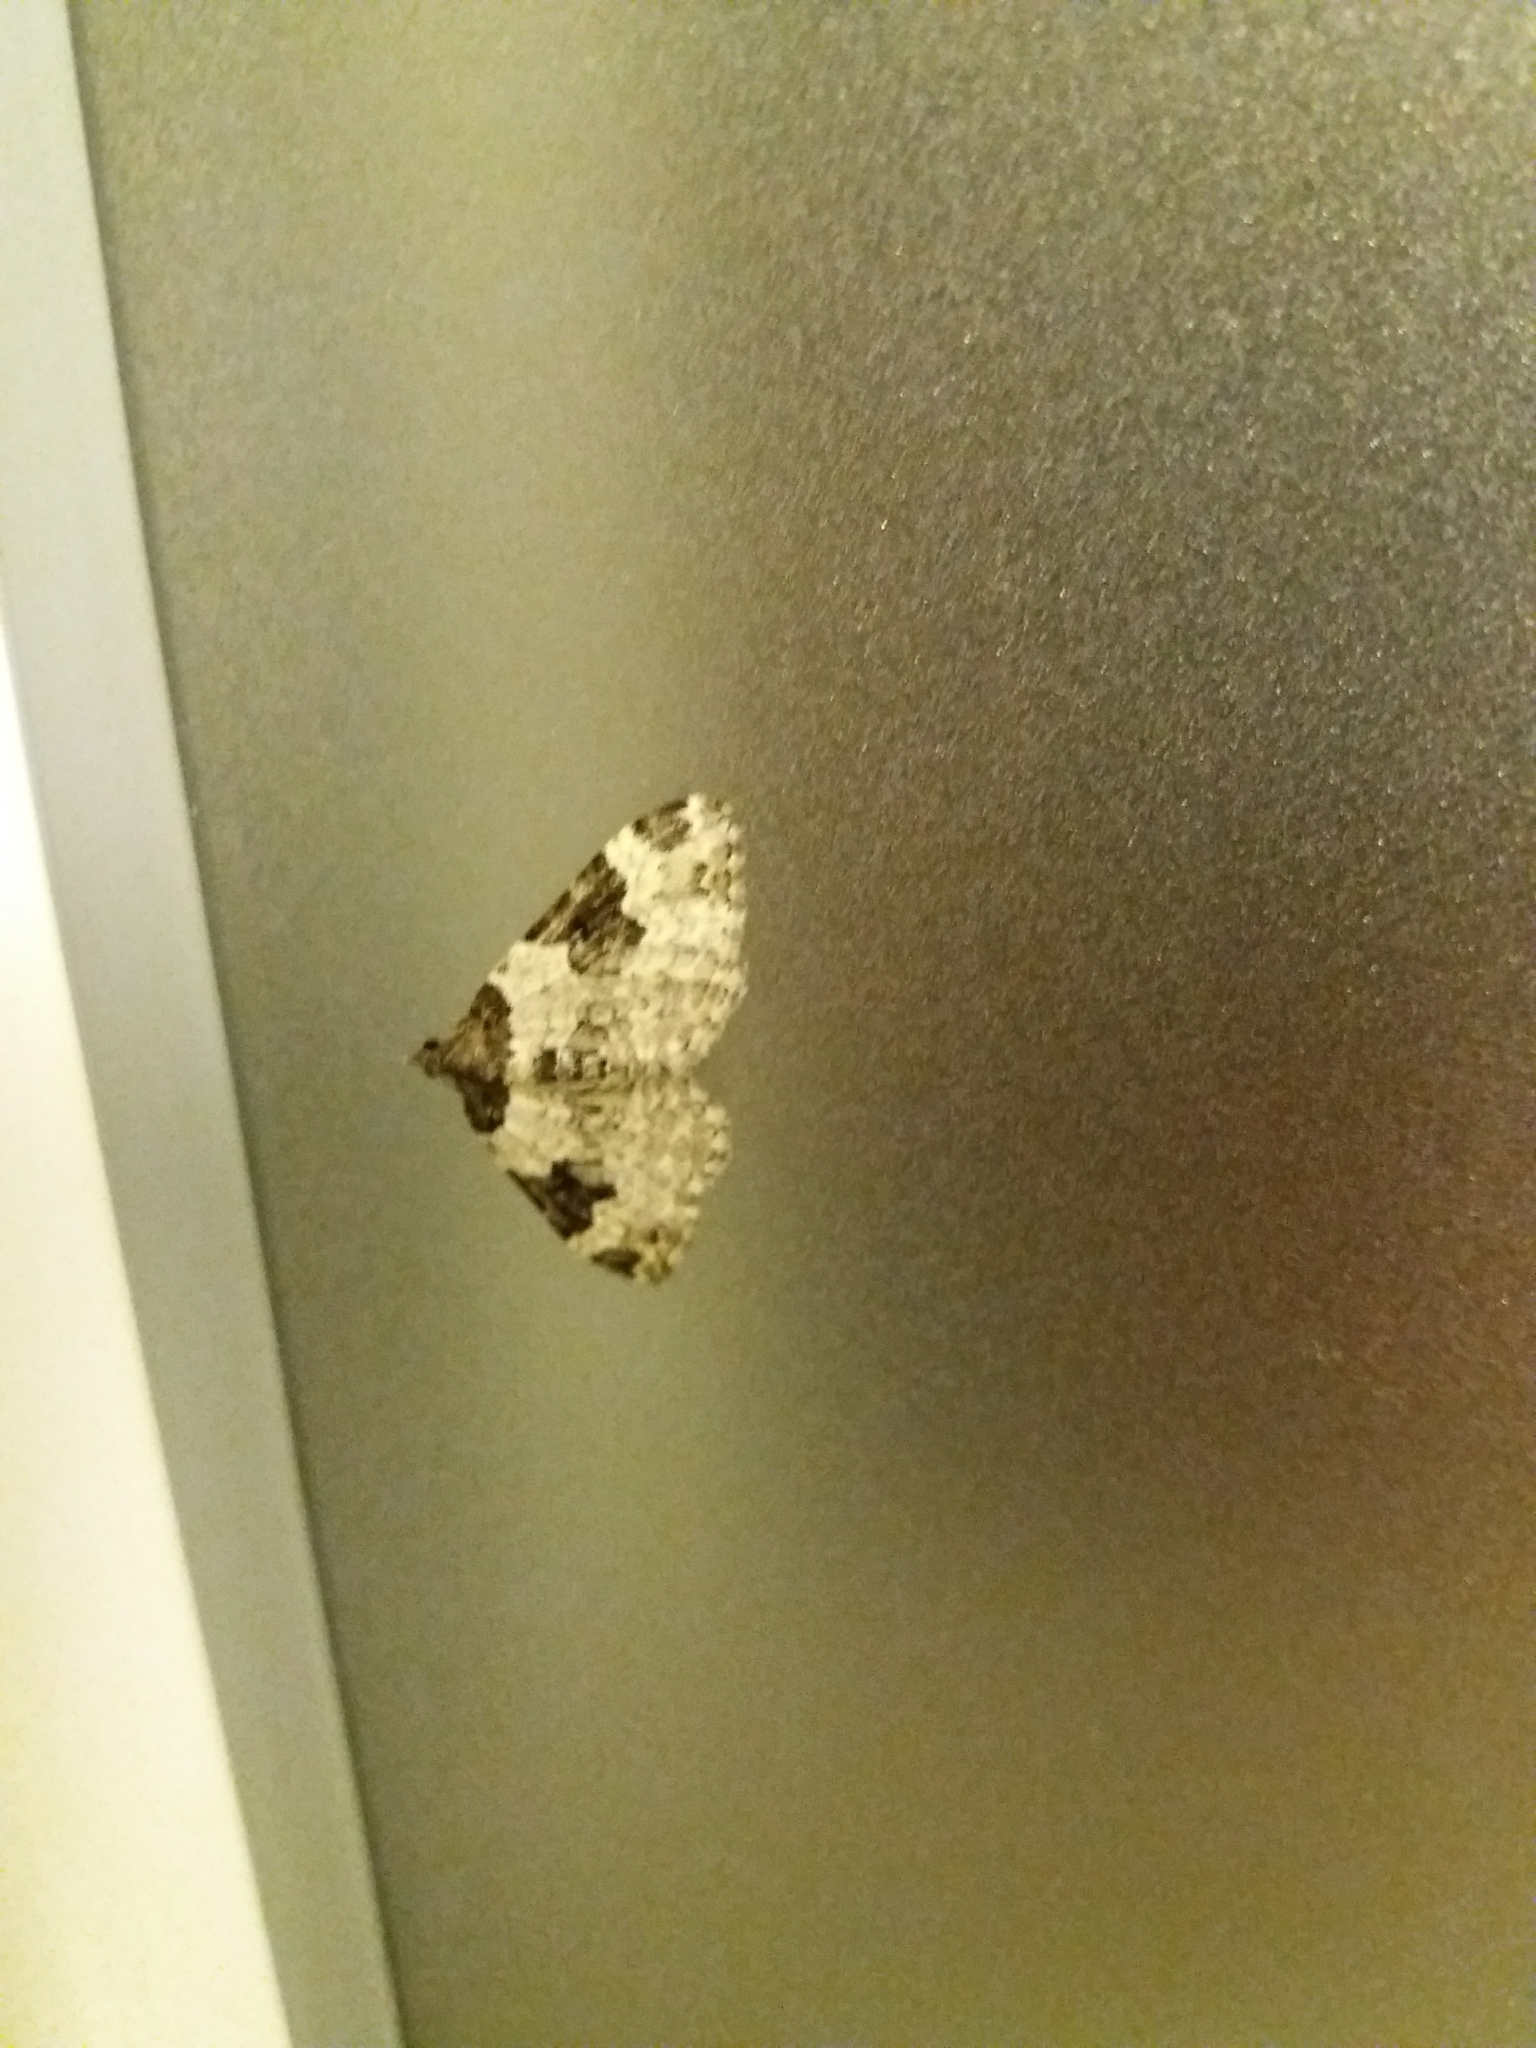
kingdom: Animalia
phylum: Arthropoda
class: Insecta
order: Lepidoptera
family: Geometridae
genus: Xanthorhoe
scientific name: Xanthorhoe fluctuata
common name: Garden carpet
